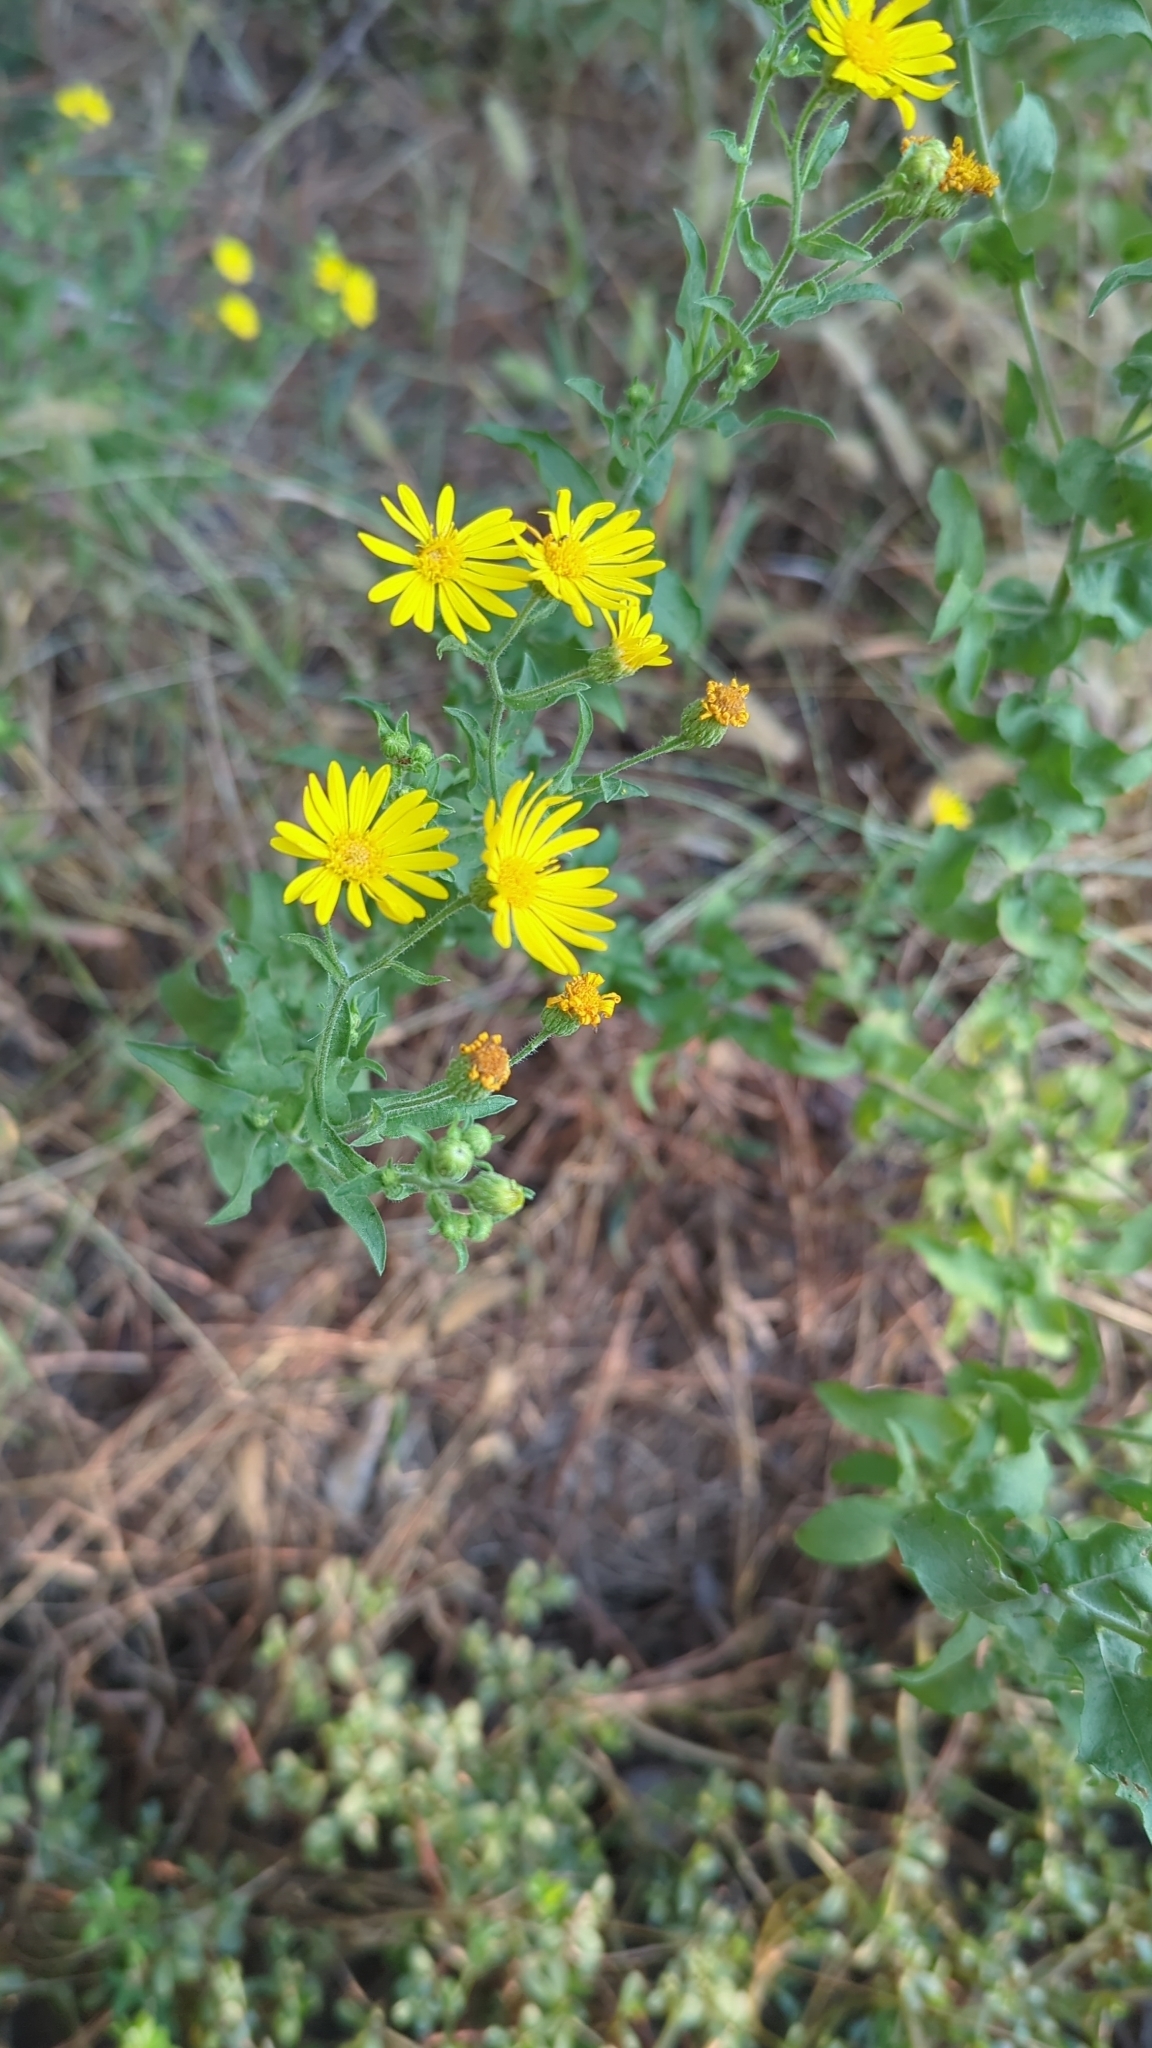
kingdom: Plantae
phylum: Tracheophyta
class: Magnoliopsida
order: Asterales
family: Asteraceae
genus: Heterotheca
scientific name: Heterotheca subaxillaris
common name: Camphorweed
